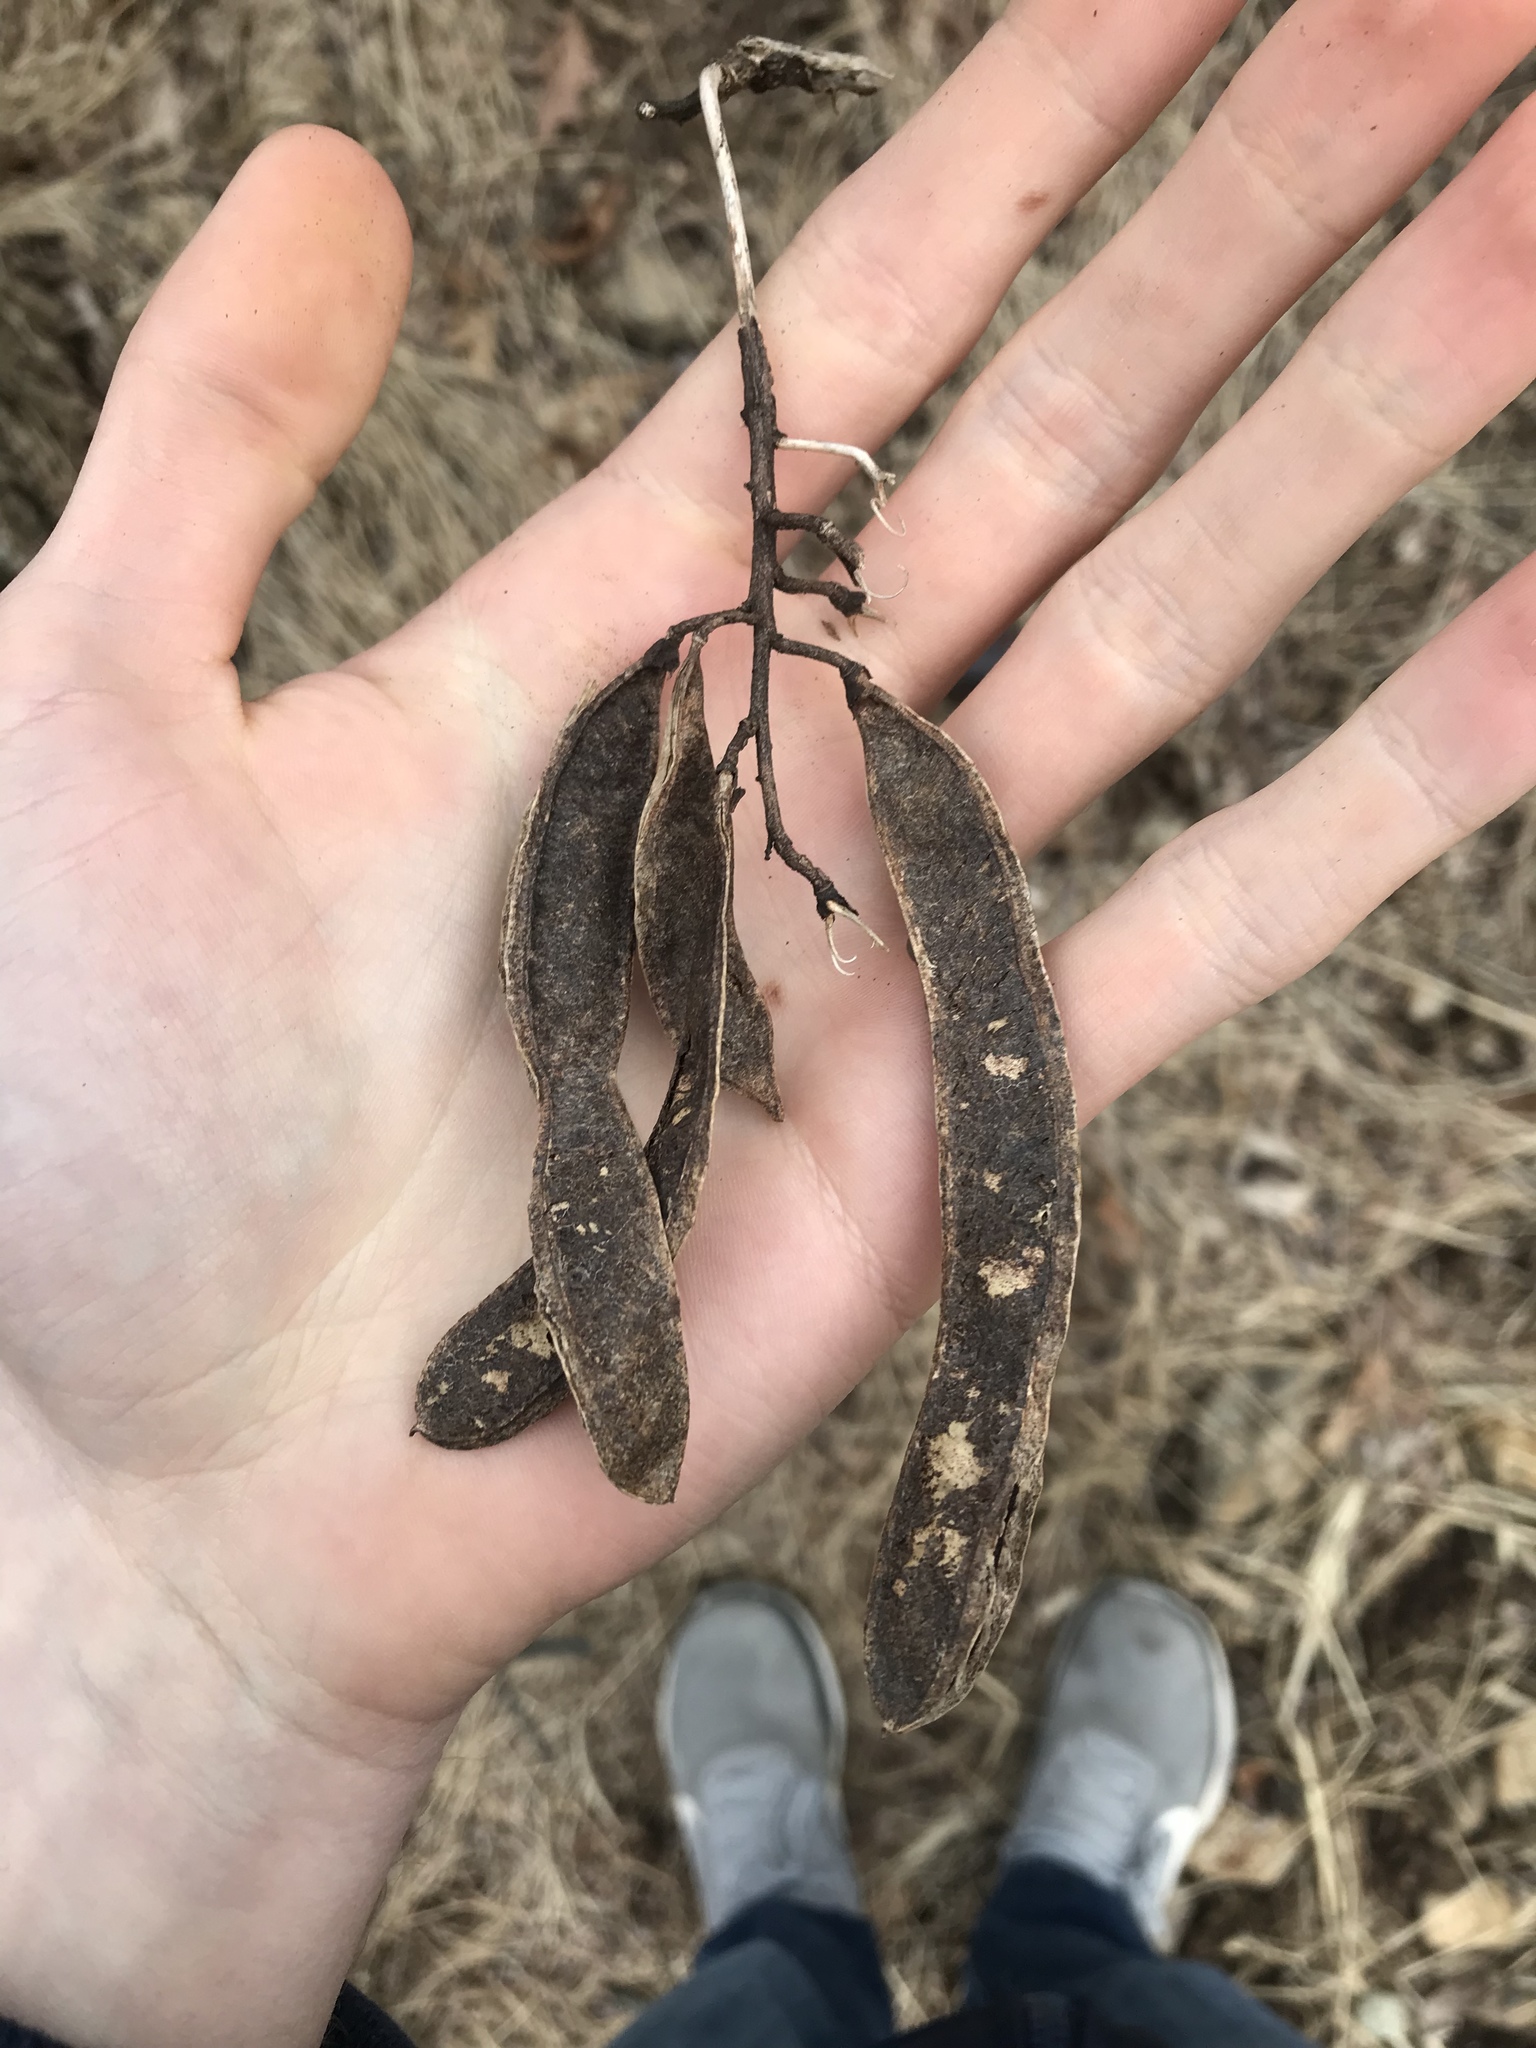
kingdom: Plantae
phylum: Tracheophyta
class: Magnoliopsida
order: Fabales
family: Fabaceae
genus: Robinia
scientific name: Robinia pseudoacacia
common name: Black locust
